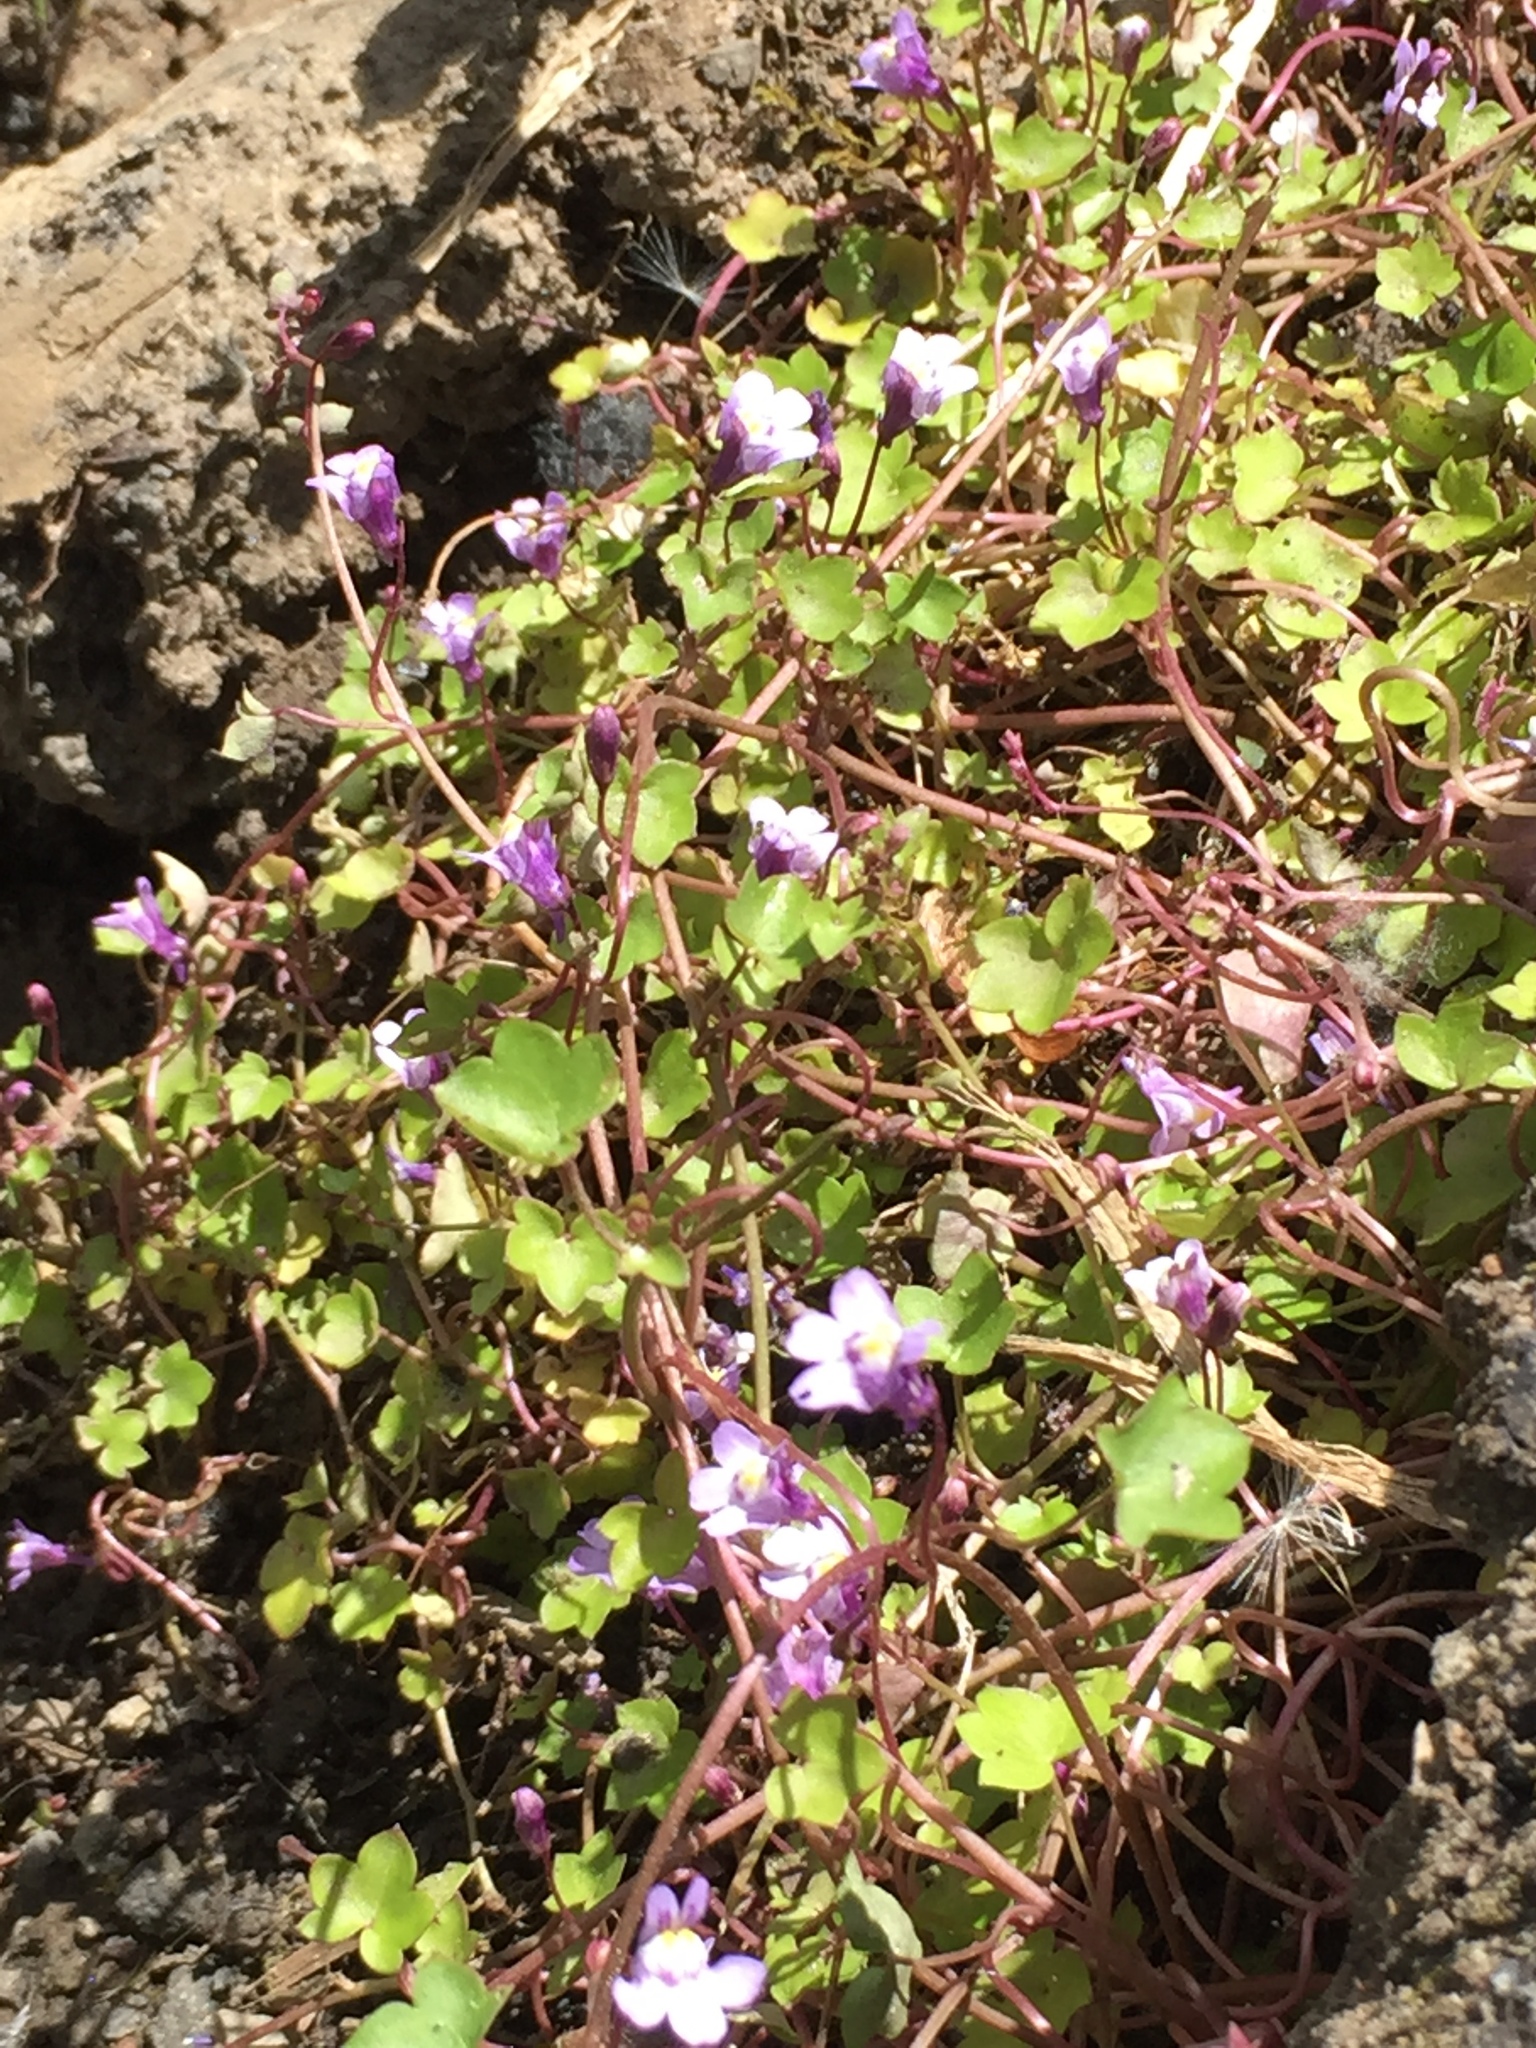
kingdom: Plantae
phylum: Tracheophyta
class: Magnoliopsida
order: Lamiales
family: Plantaginaceae
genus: Cymbalaria
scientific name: Cymbalaria muralis
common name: Ivy-leaved toadflax
